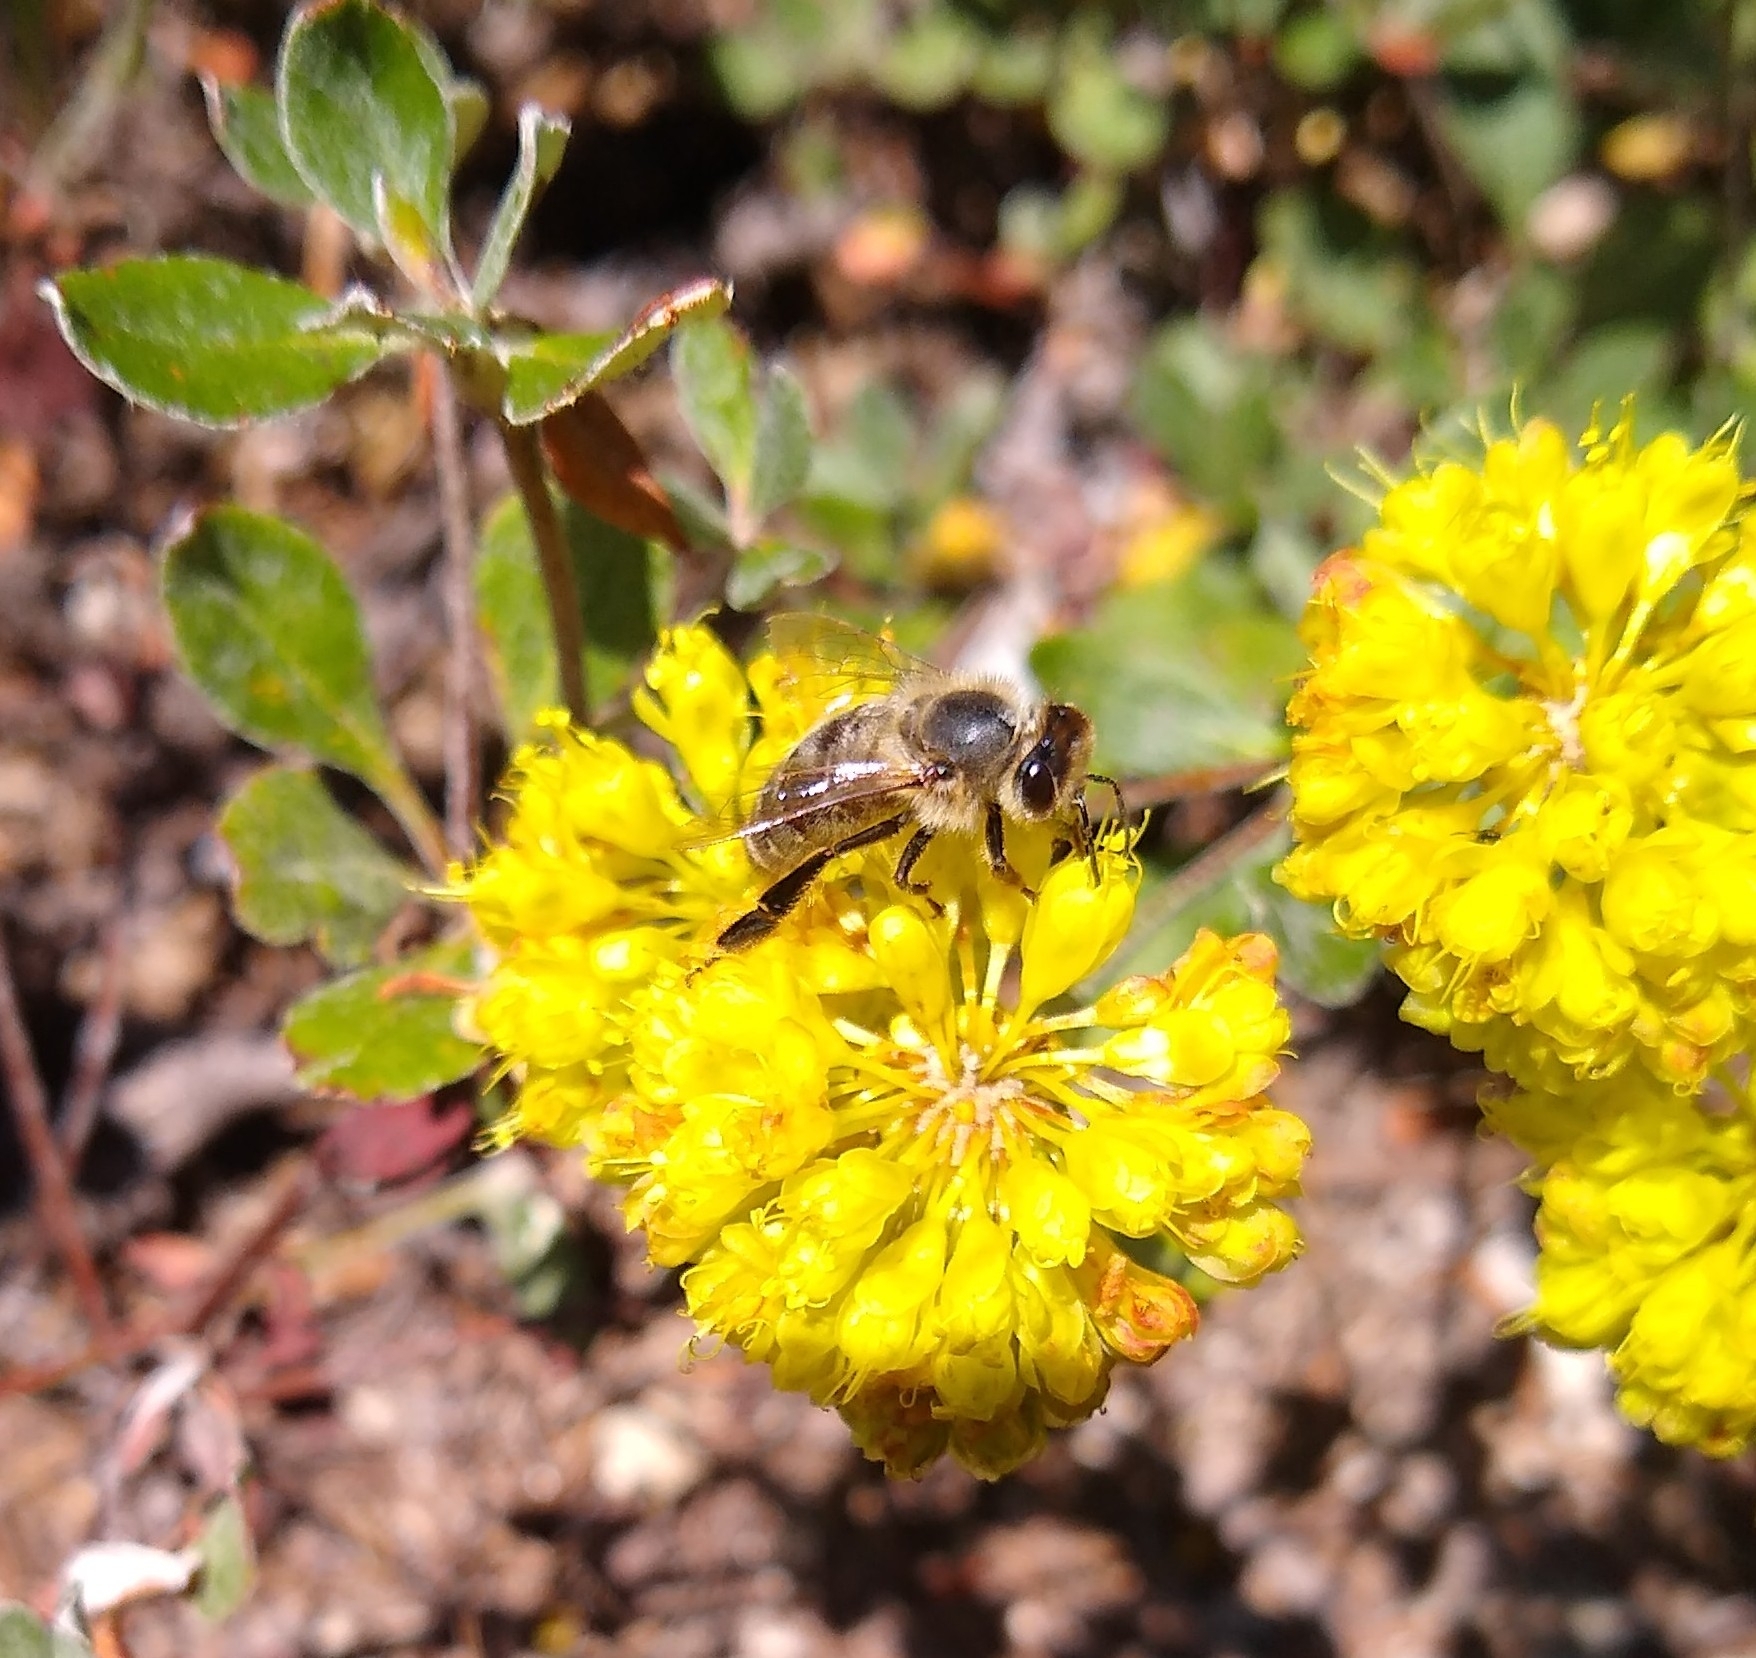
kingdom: Animalia
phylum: Arthropoda
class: Insecta
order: Hymenoptera
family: Apidae
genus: Apis
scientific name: Apis mellifera
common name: Honey bee
